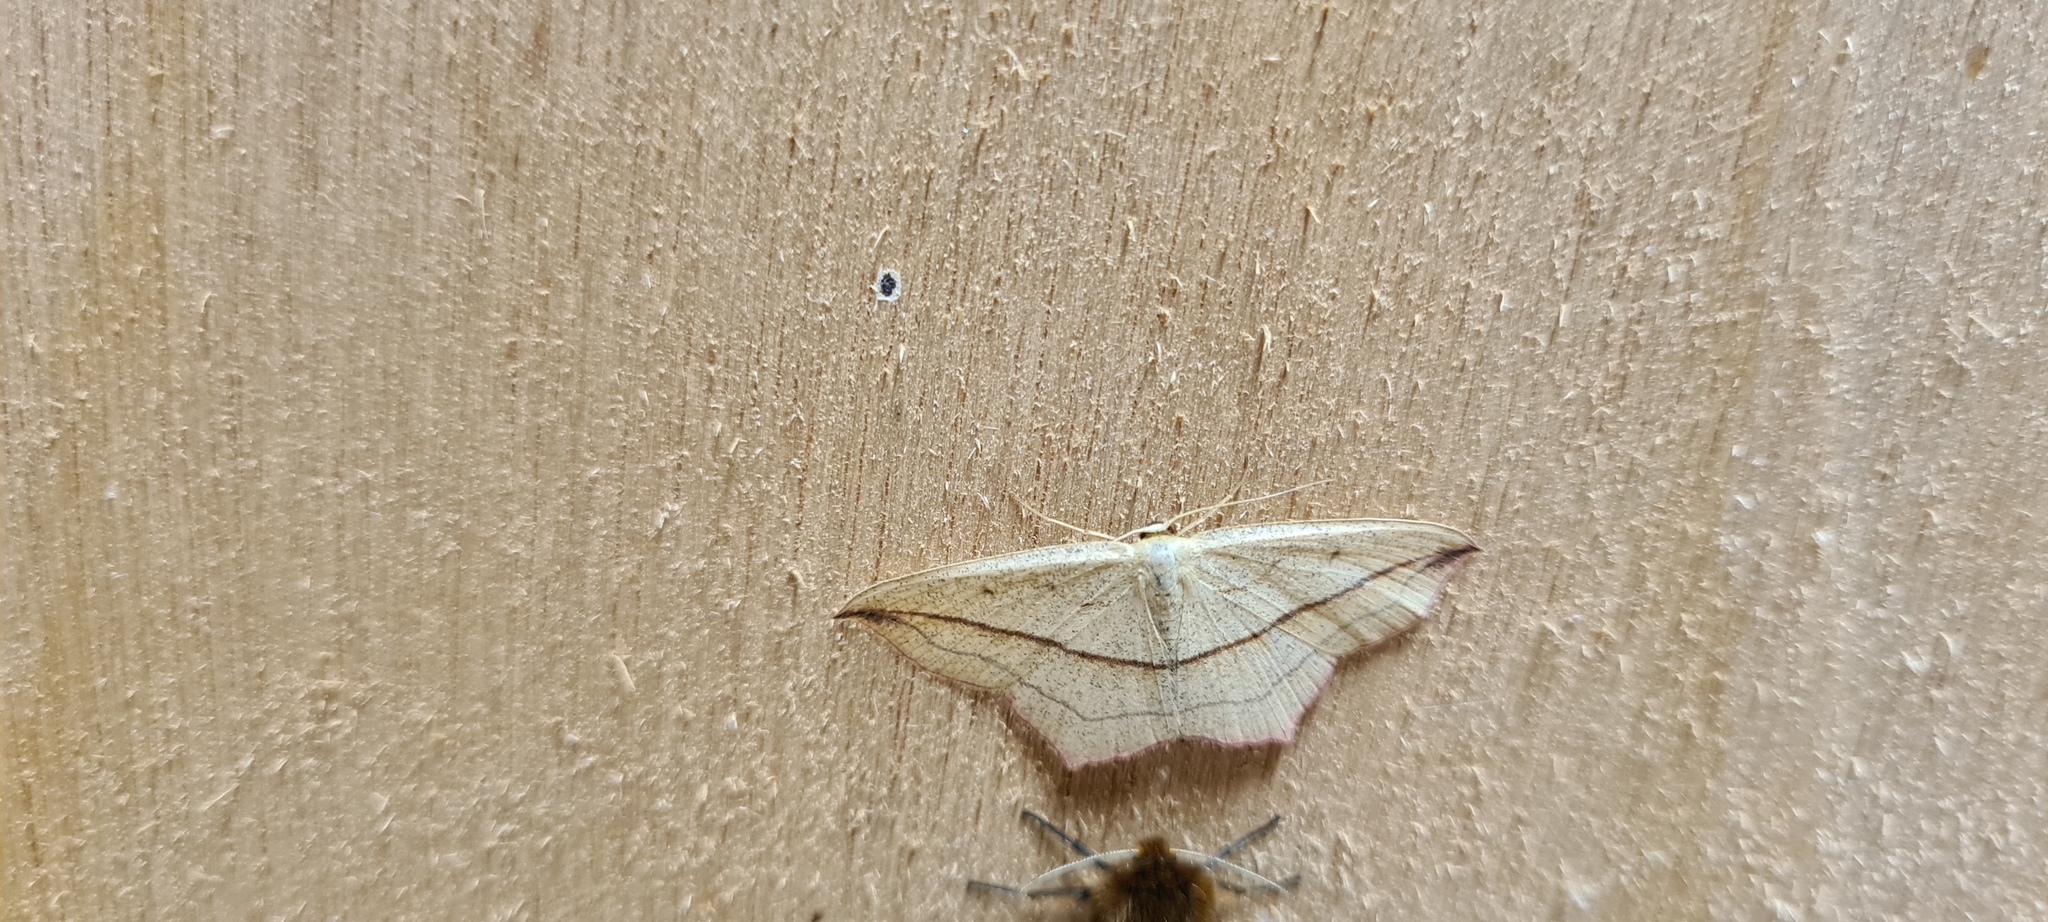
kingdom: Animalia
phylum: Arthropoda
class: Insecta
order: Lepidoptera
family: Geometridae
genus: Timandra
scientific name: Timandra comae
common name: Blood-vein
